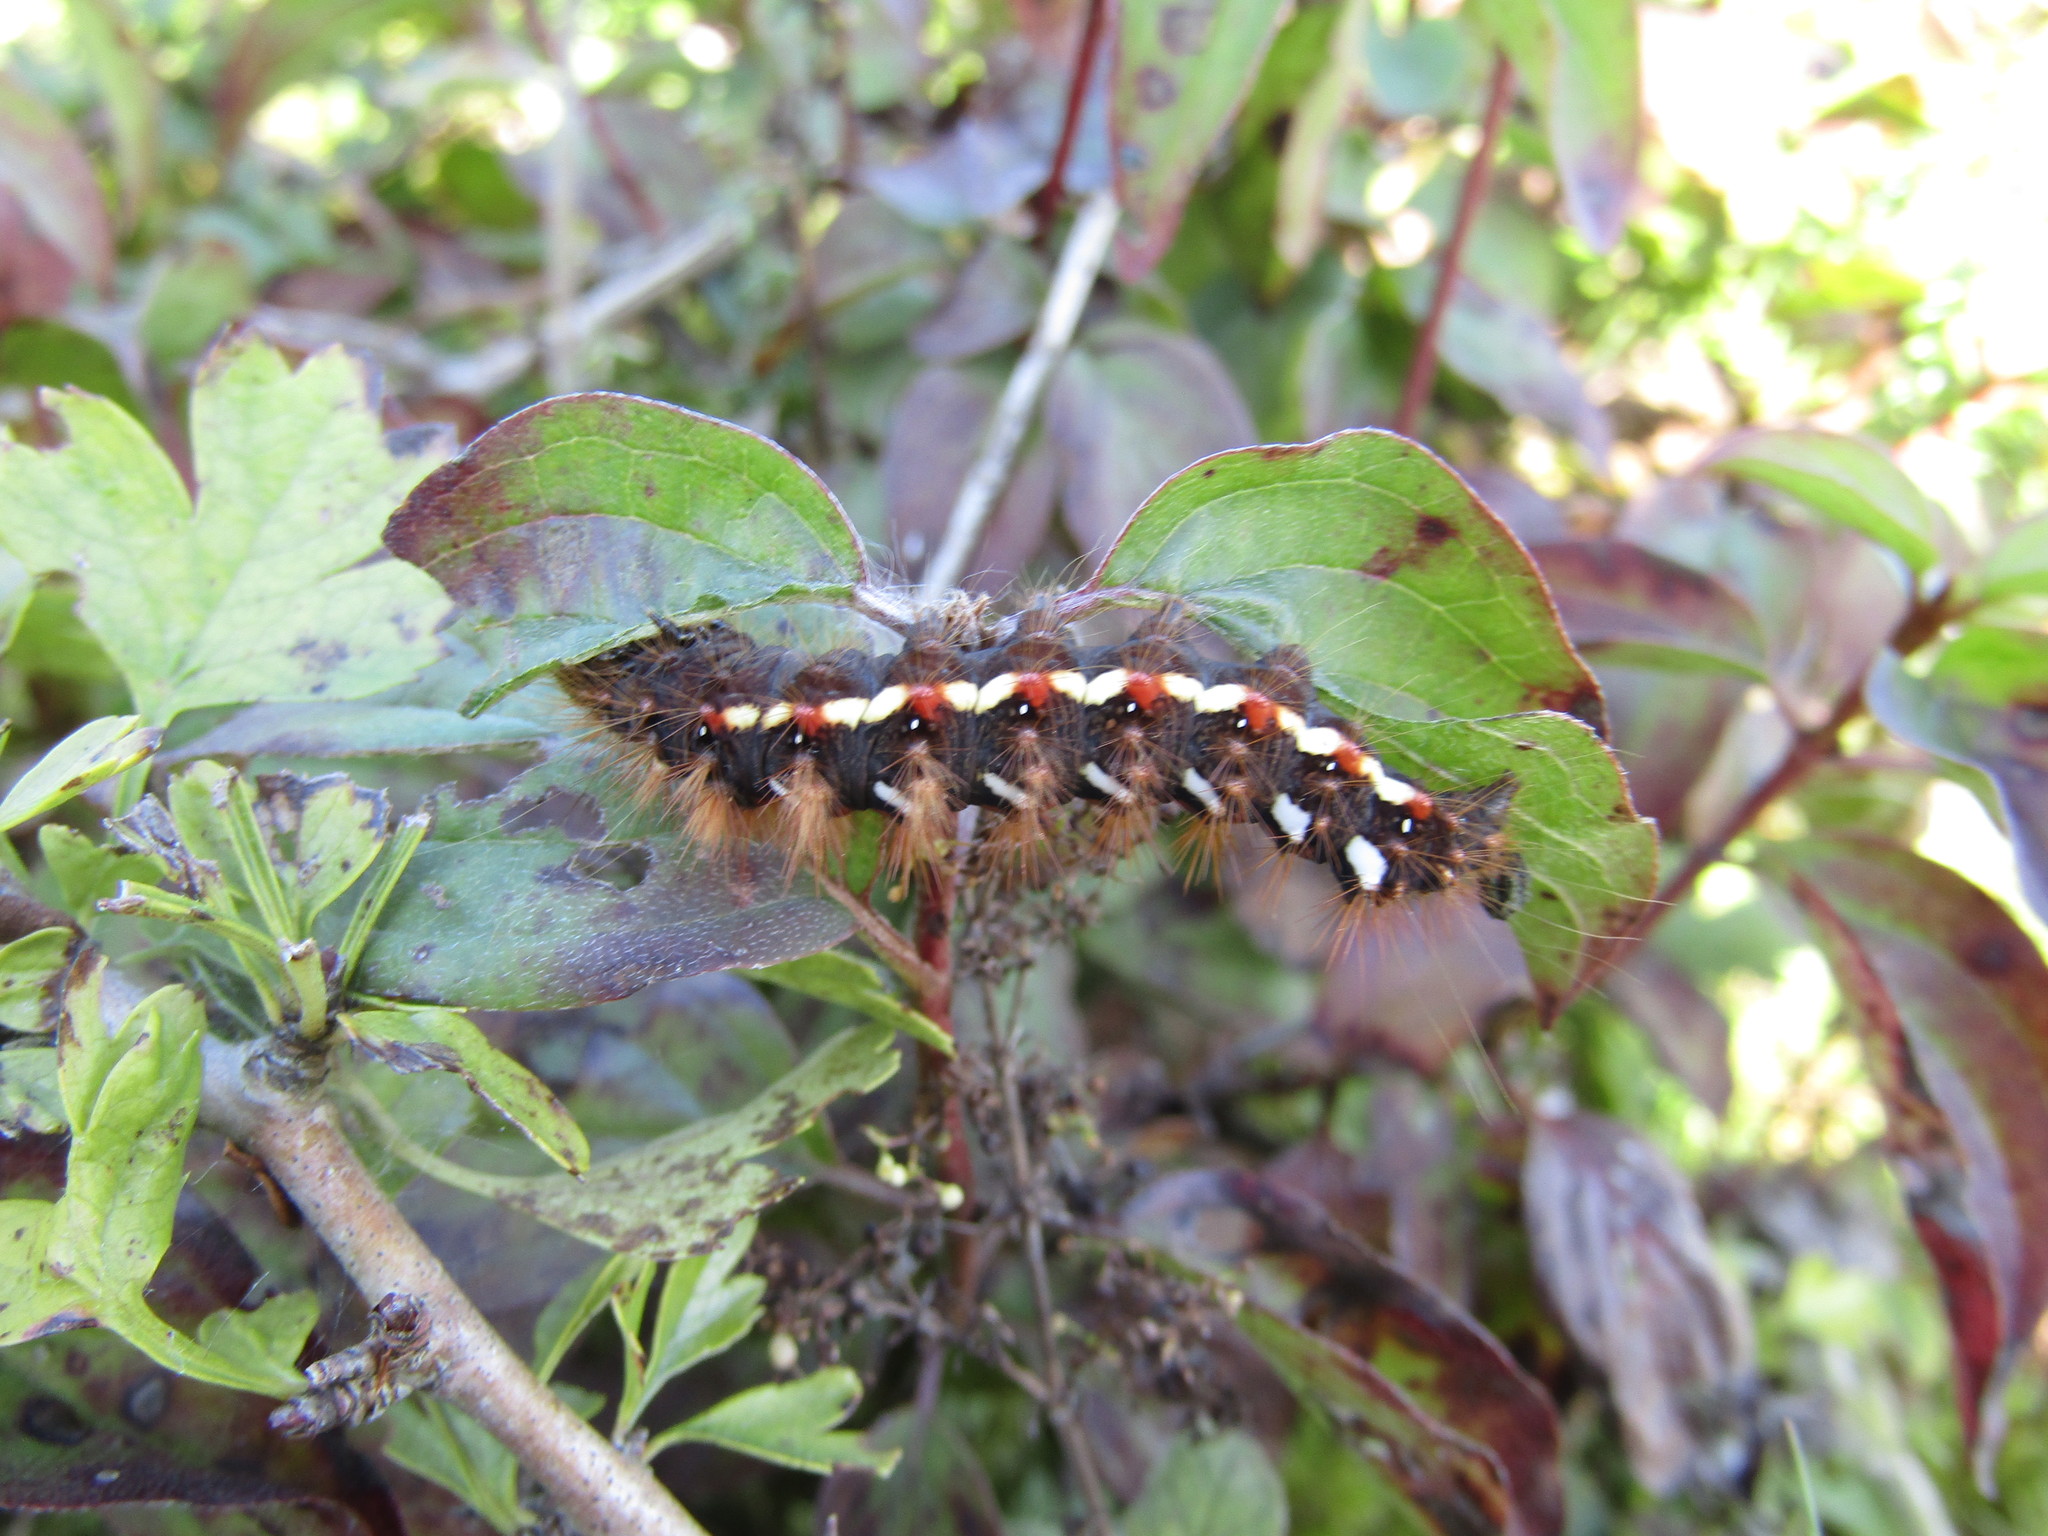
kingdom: Animalia
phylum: Arthropoda
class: Insecta
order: Lepidoptera
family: Noctuidae
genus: Acronicta
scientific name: Acronicta rumicis
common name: Knot grass
